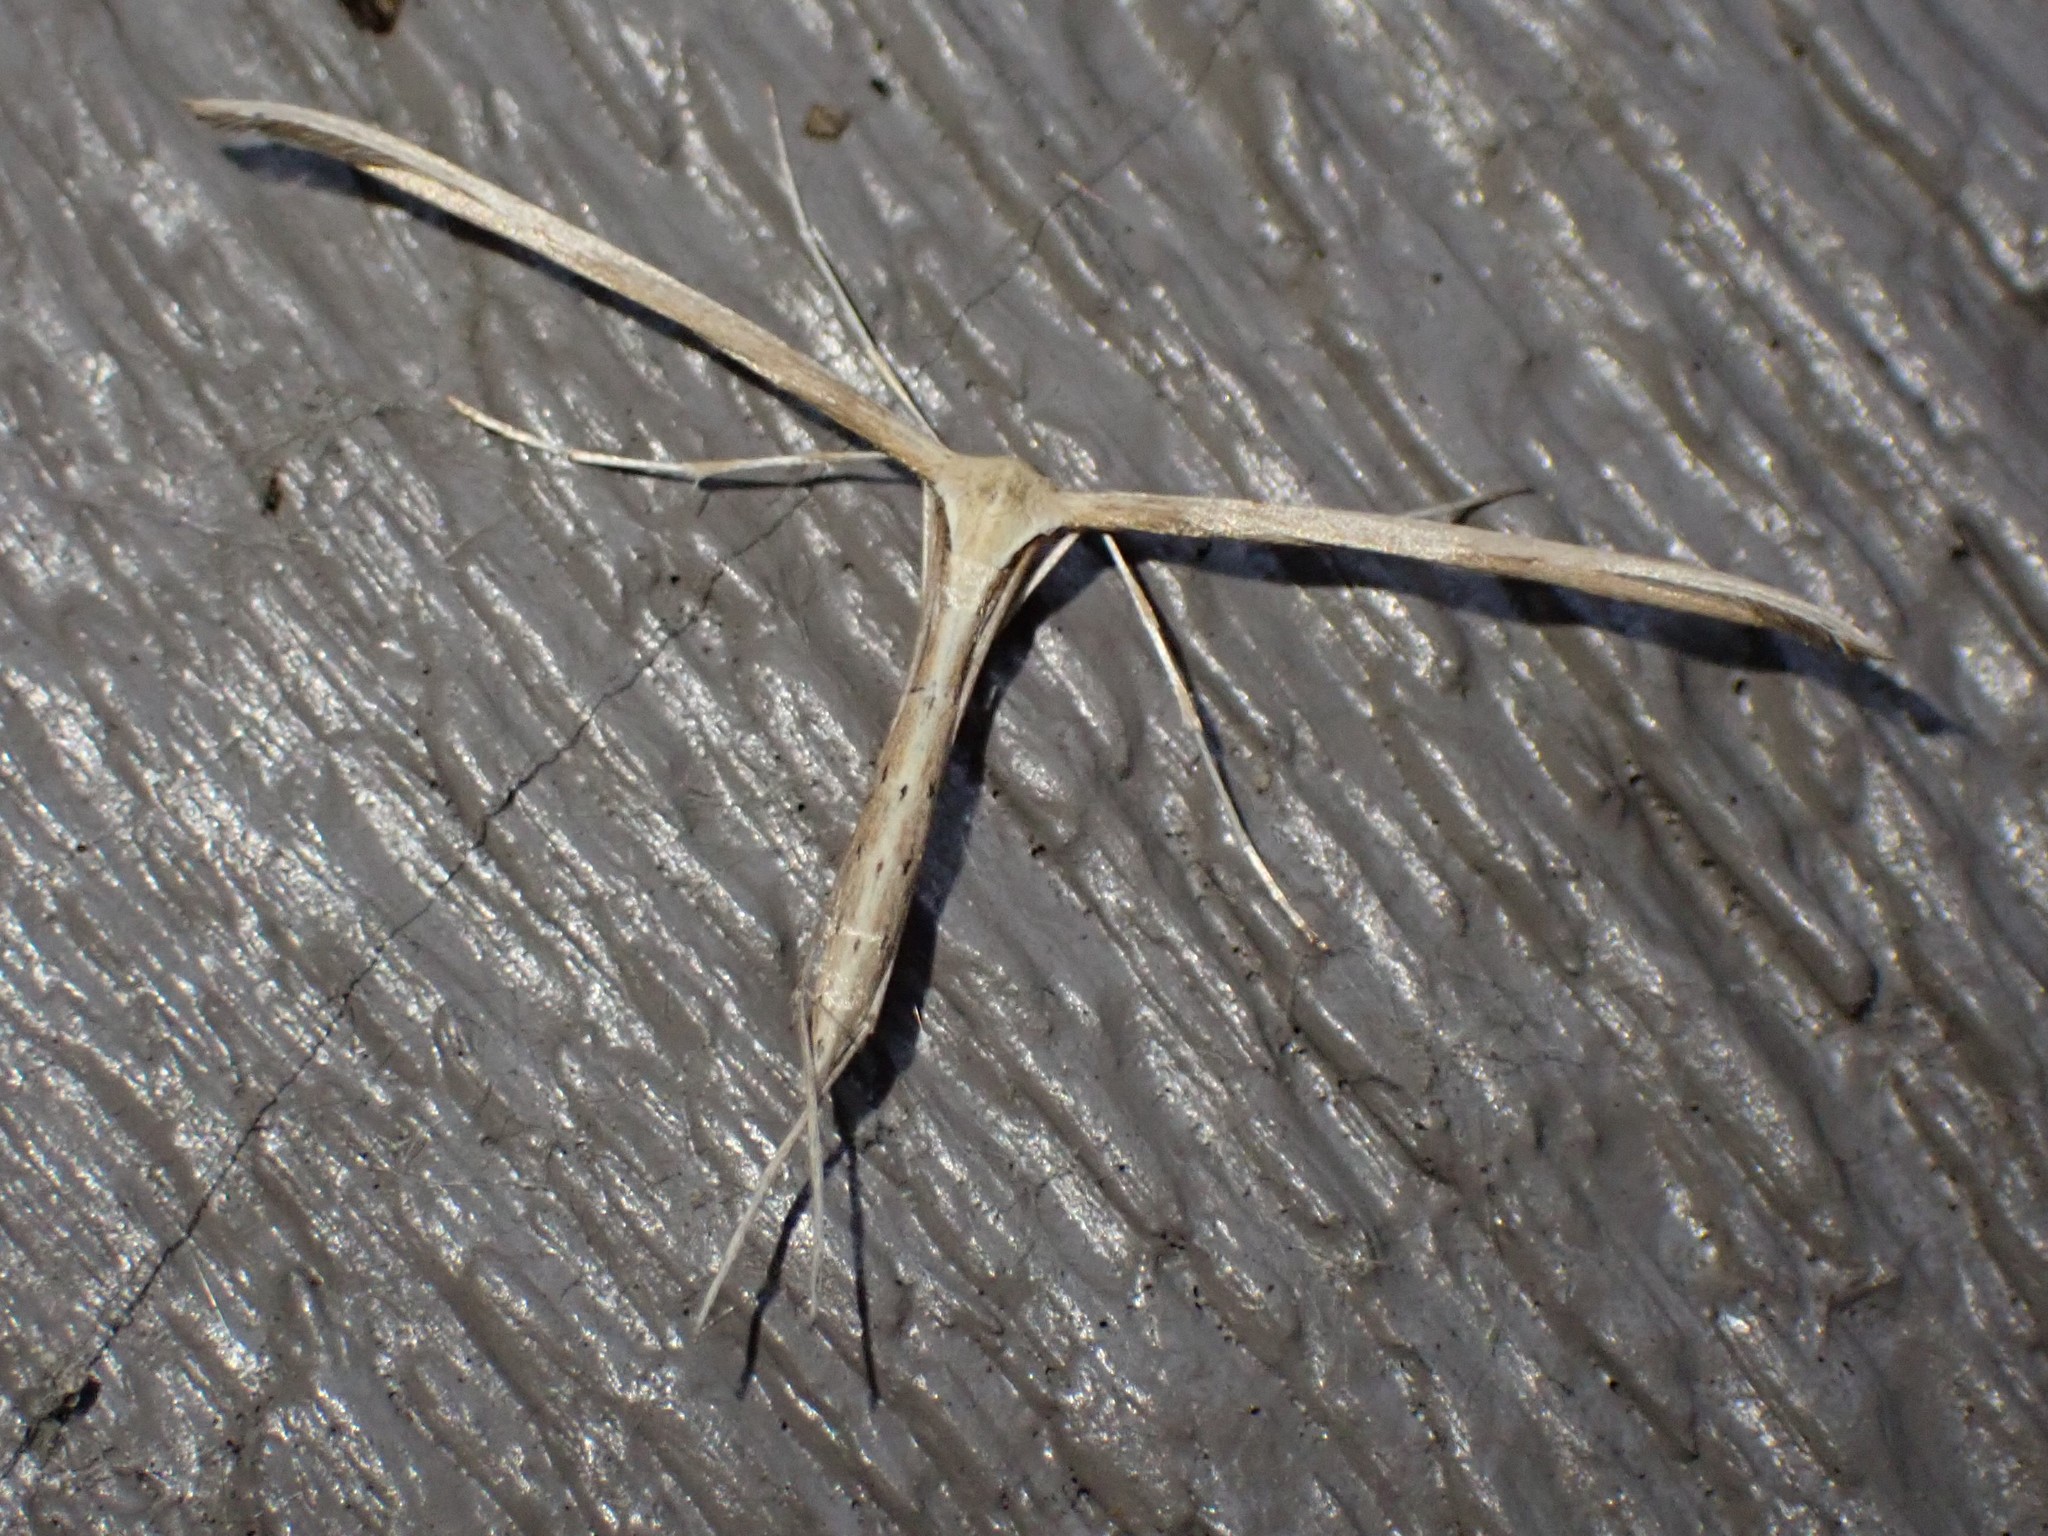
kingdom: Animalia
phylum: Arthropoda
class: Insecta
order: Lepidoptera
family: Pterophoridae
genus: Emmelina
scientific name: Emmelina monodactyla
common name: Common plume
